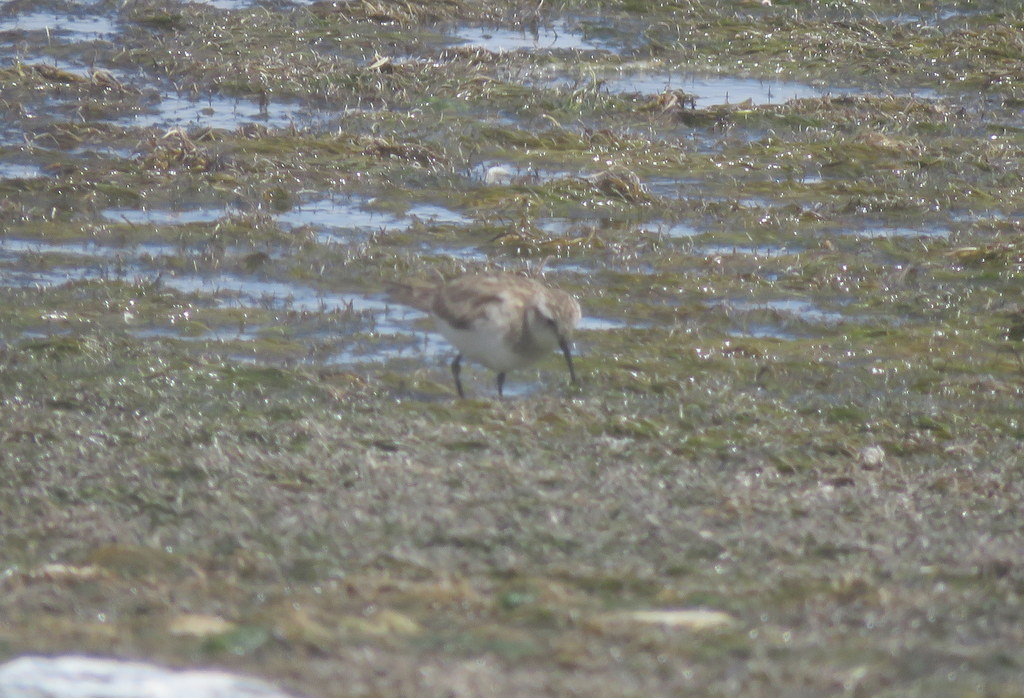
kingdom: Animalia
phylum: Chordata
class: Aves
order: Charadriiformes
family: Scolopacidae
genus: Calidris
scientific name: Calidris bairdii
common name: Baird's sandpiper
